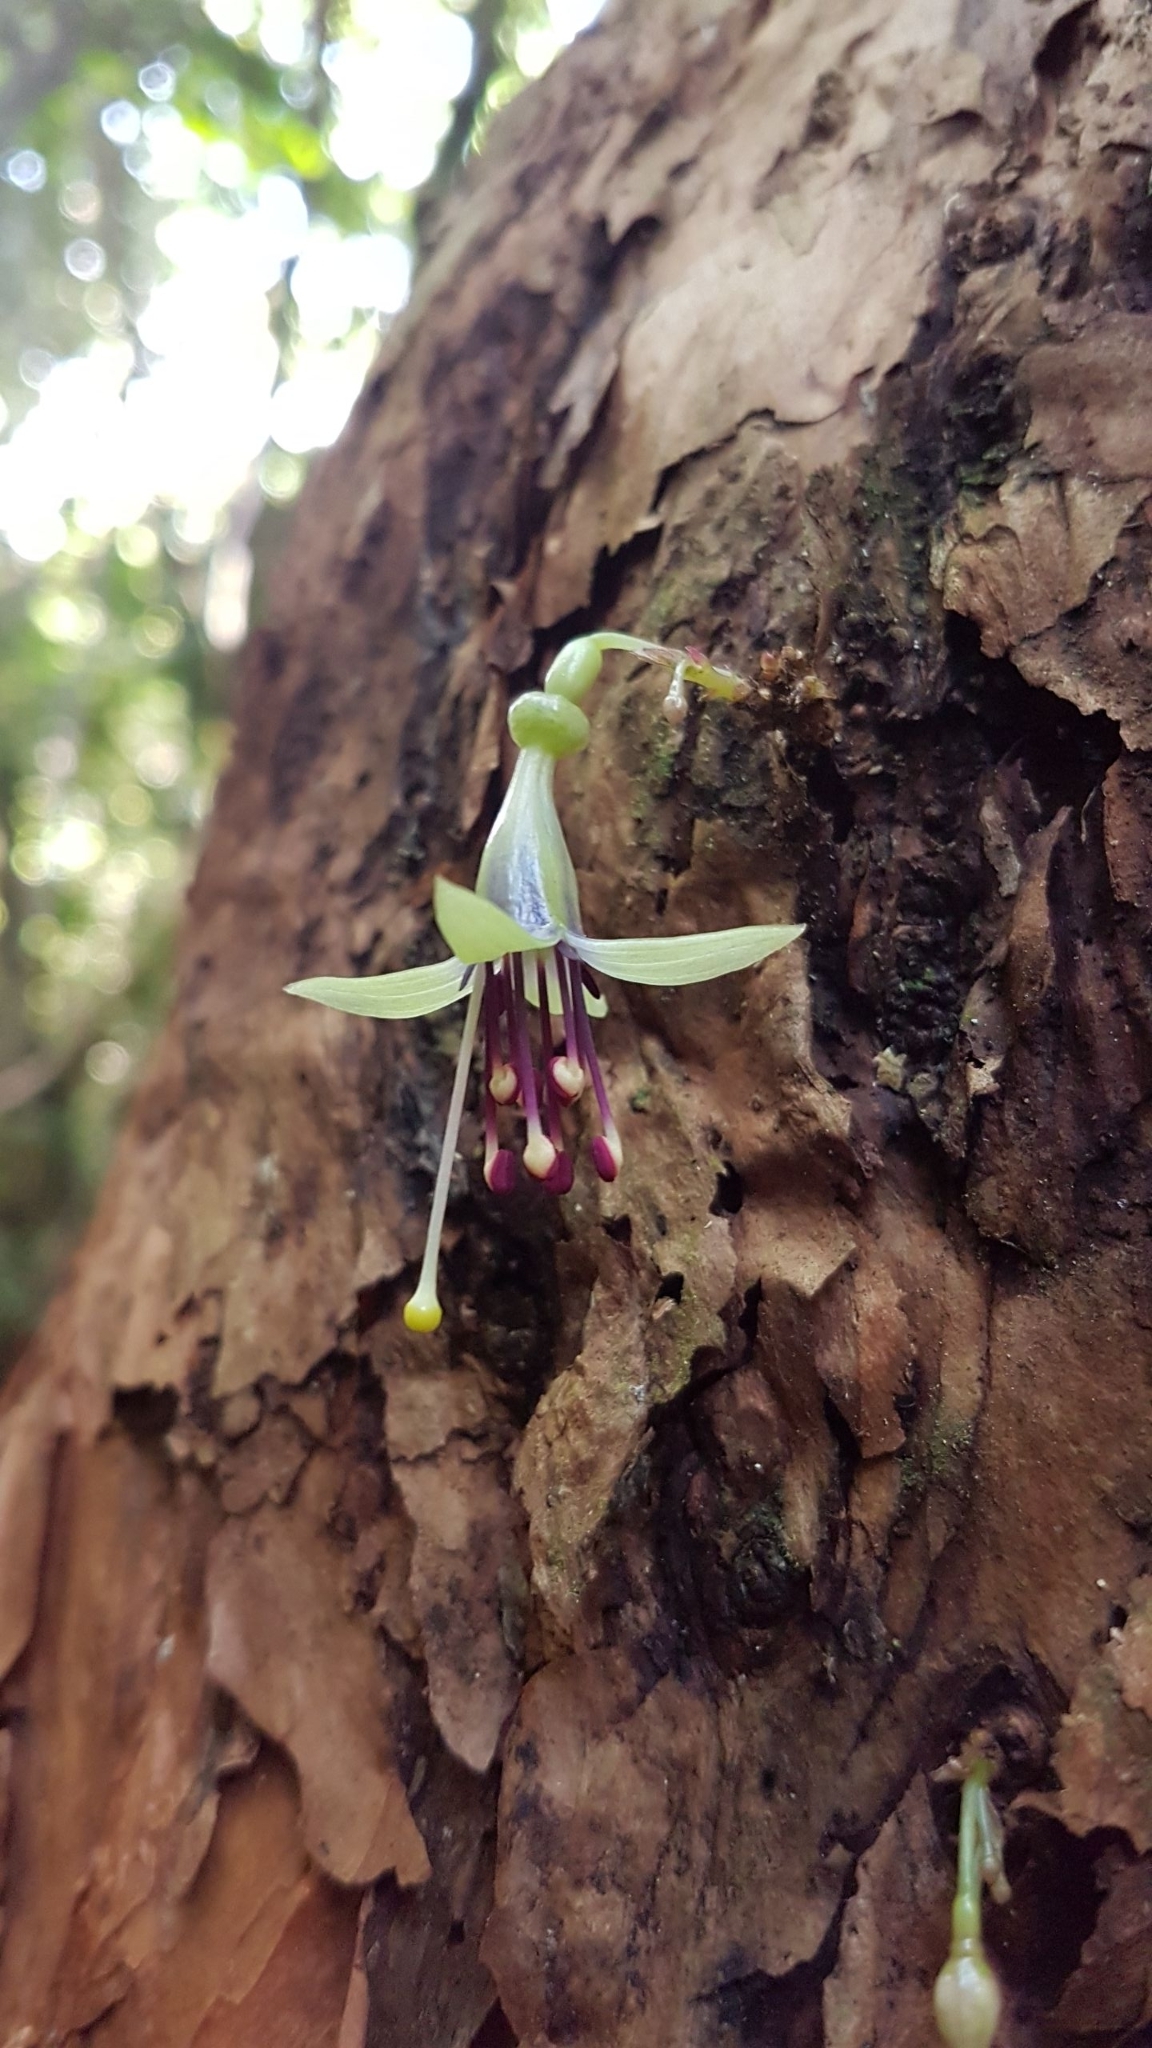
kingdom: Plantae
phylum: Tracheophyta
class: Magnoliopsida
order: Myrtales
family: Onagraceae
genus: Fuchsia
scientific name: Fuchsia excorticata
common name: Tree fuchsia
